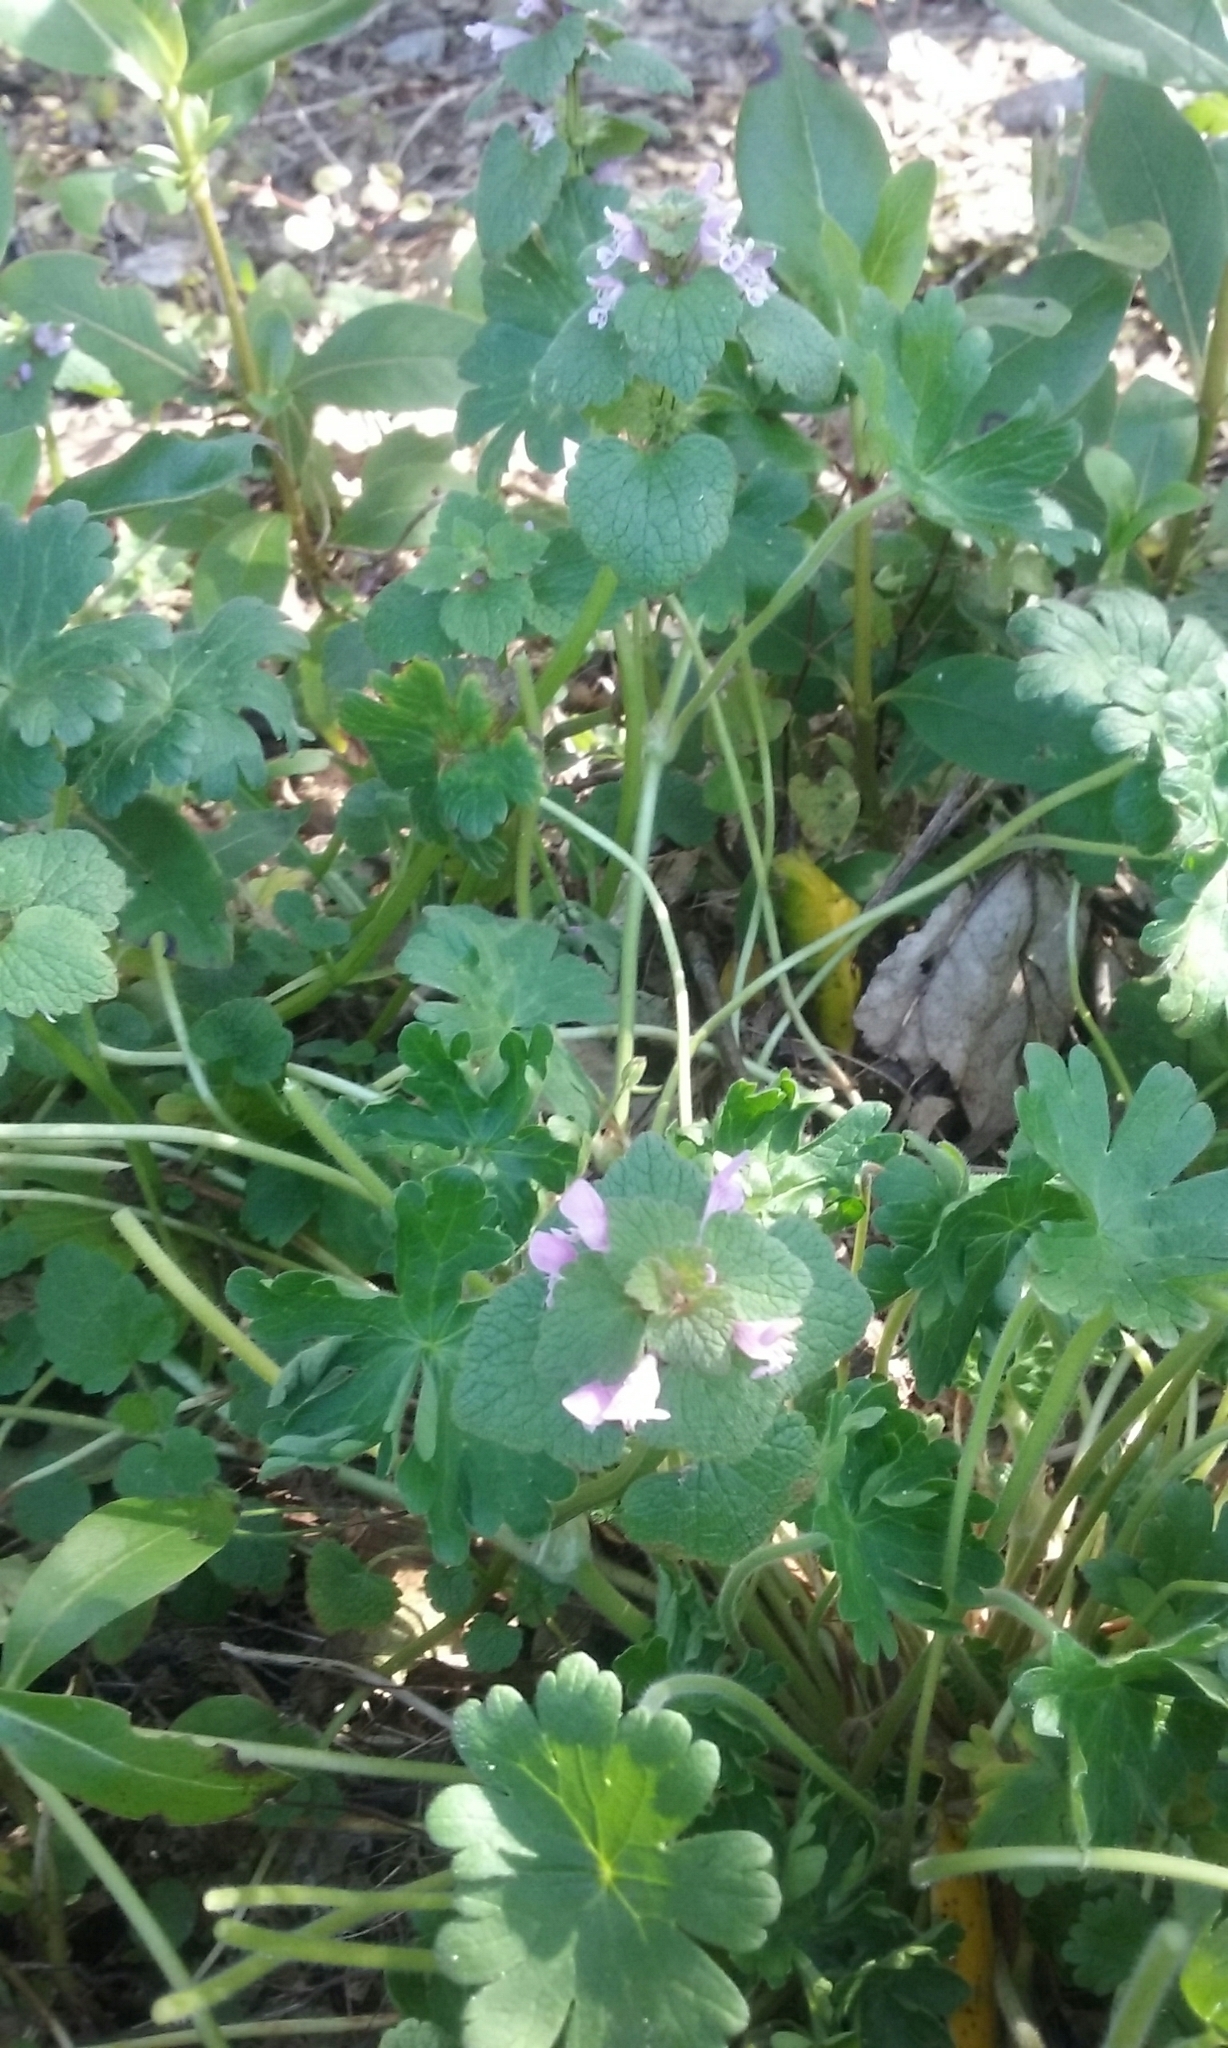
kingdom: Plantae
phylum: Tracheophyta
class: Magnoliopsida
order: Lamiales
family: Lamiaceae
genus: Lamium
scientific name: Lamium purpureum
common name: Red dead-nettle
